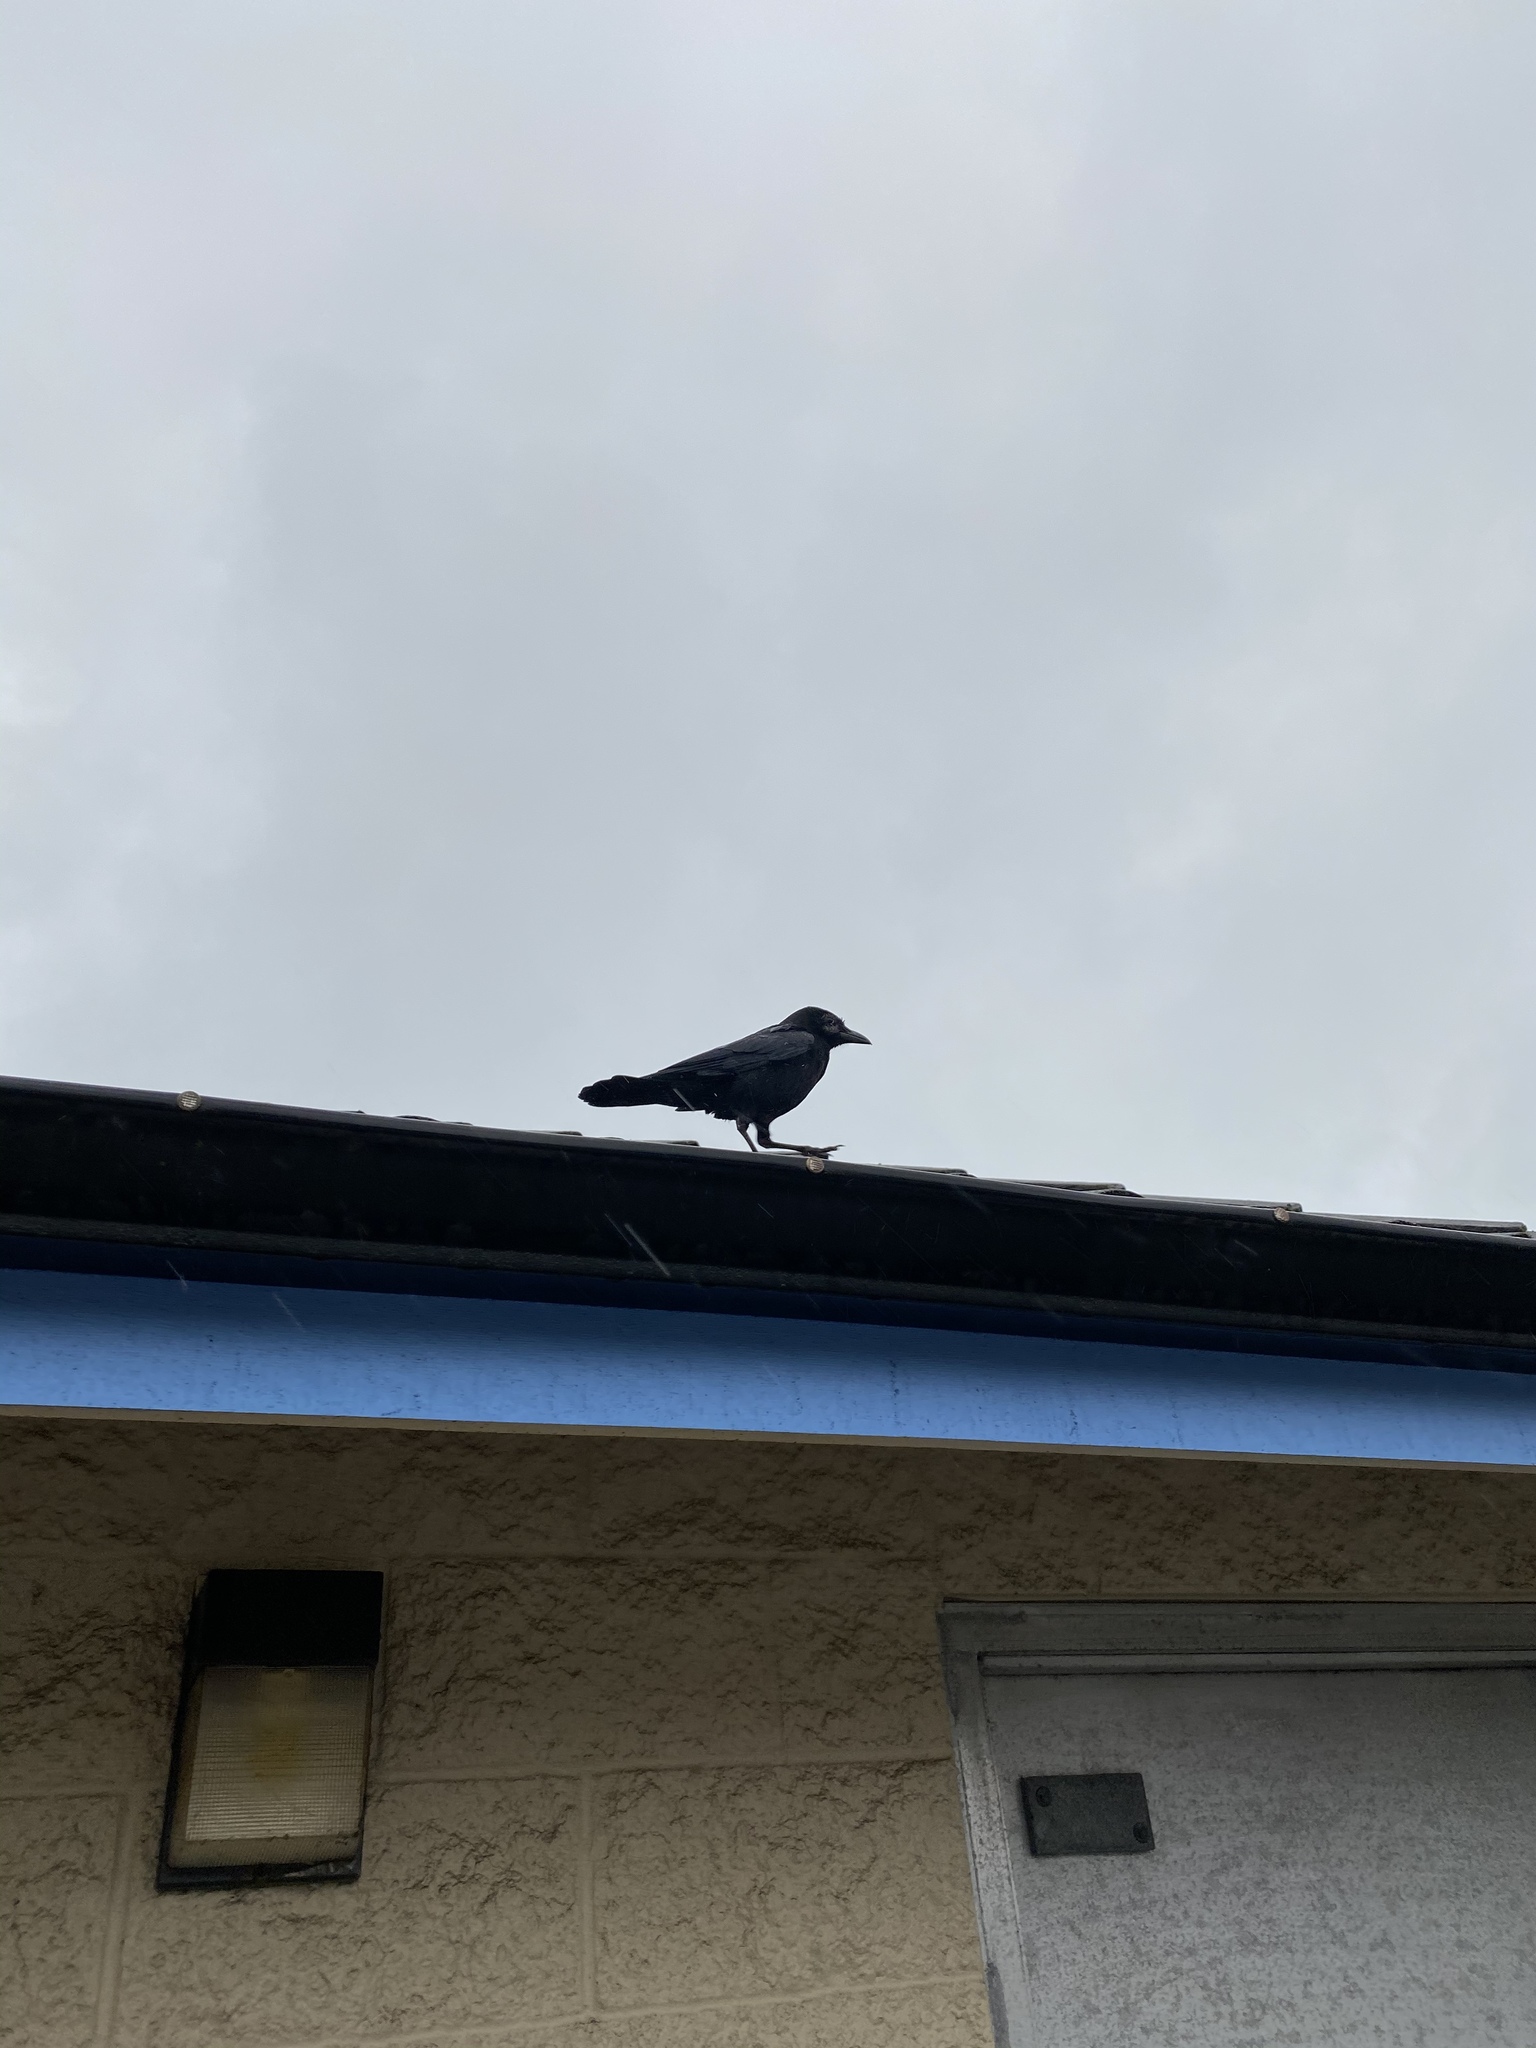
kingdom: Animalia
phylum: Chordata
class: Aves
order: Passeriformes
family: Corvidae
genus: Corvus
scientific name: Corvus brachyrhynchos
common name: American crow
